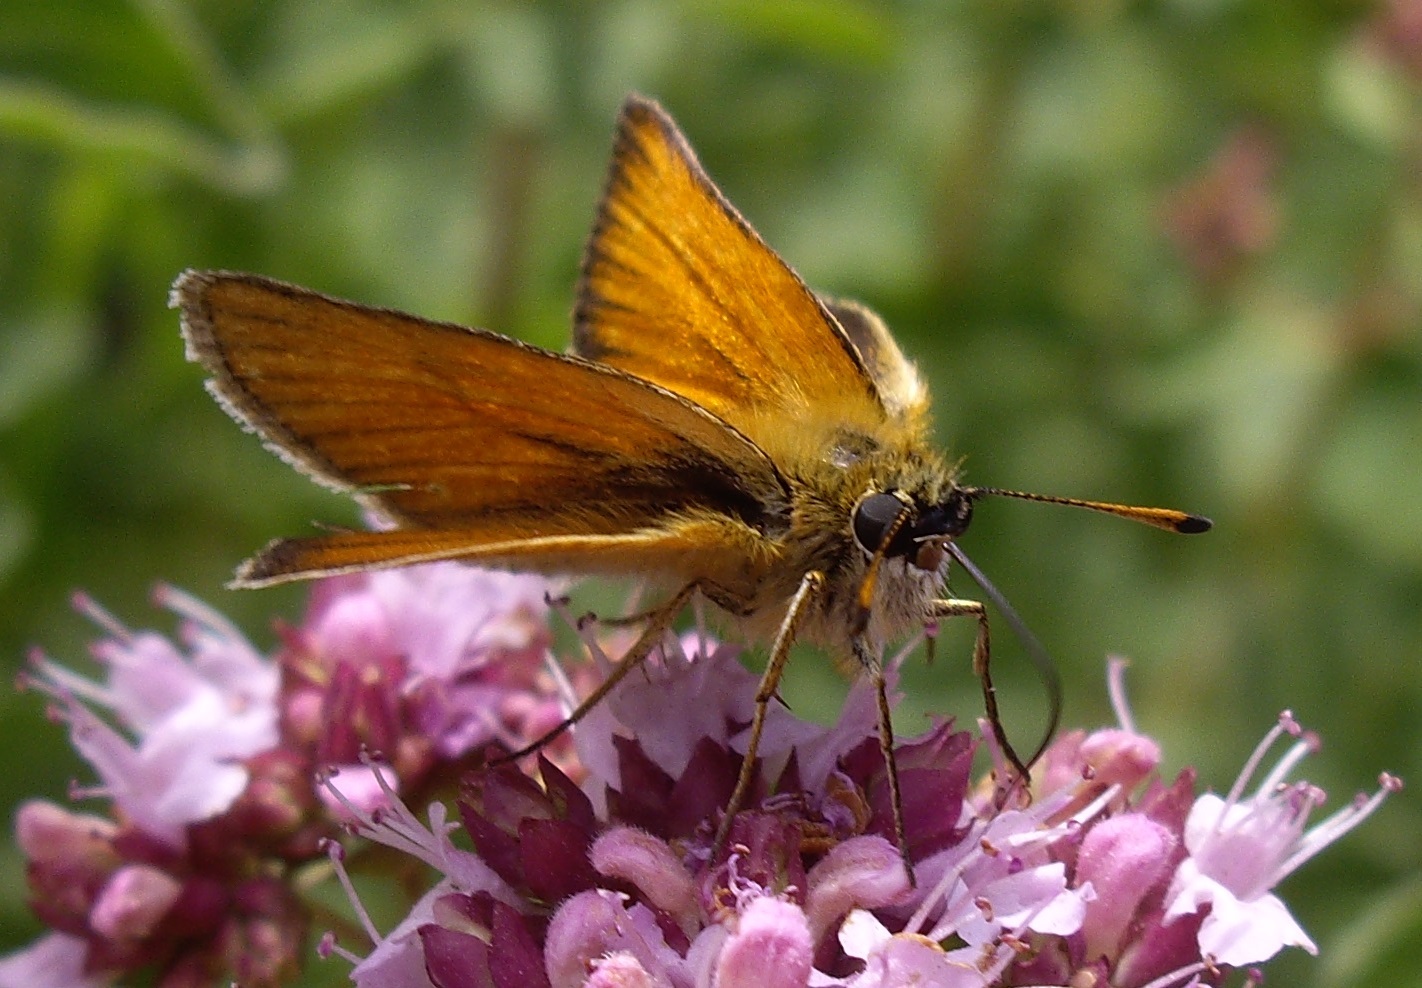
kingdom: Animalia
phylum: Arthropoda
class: Insecta
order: Lepidoptera
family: Hesperiidae
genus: Thymelicus
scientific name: Thymelicus lineola
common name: Essex skipper
